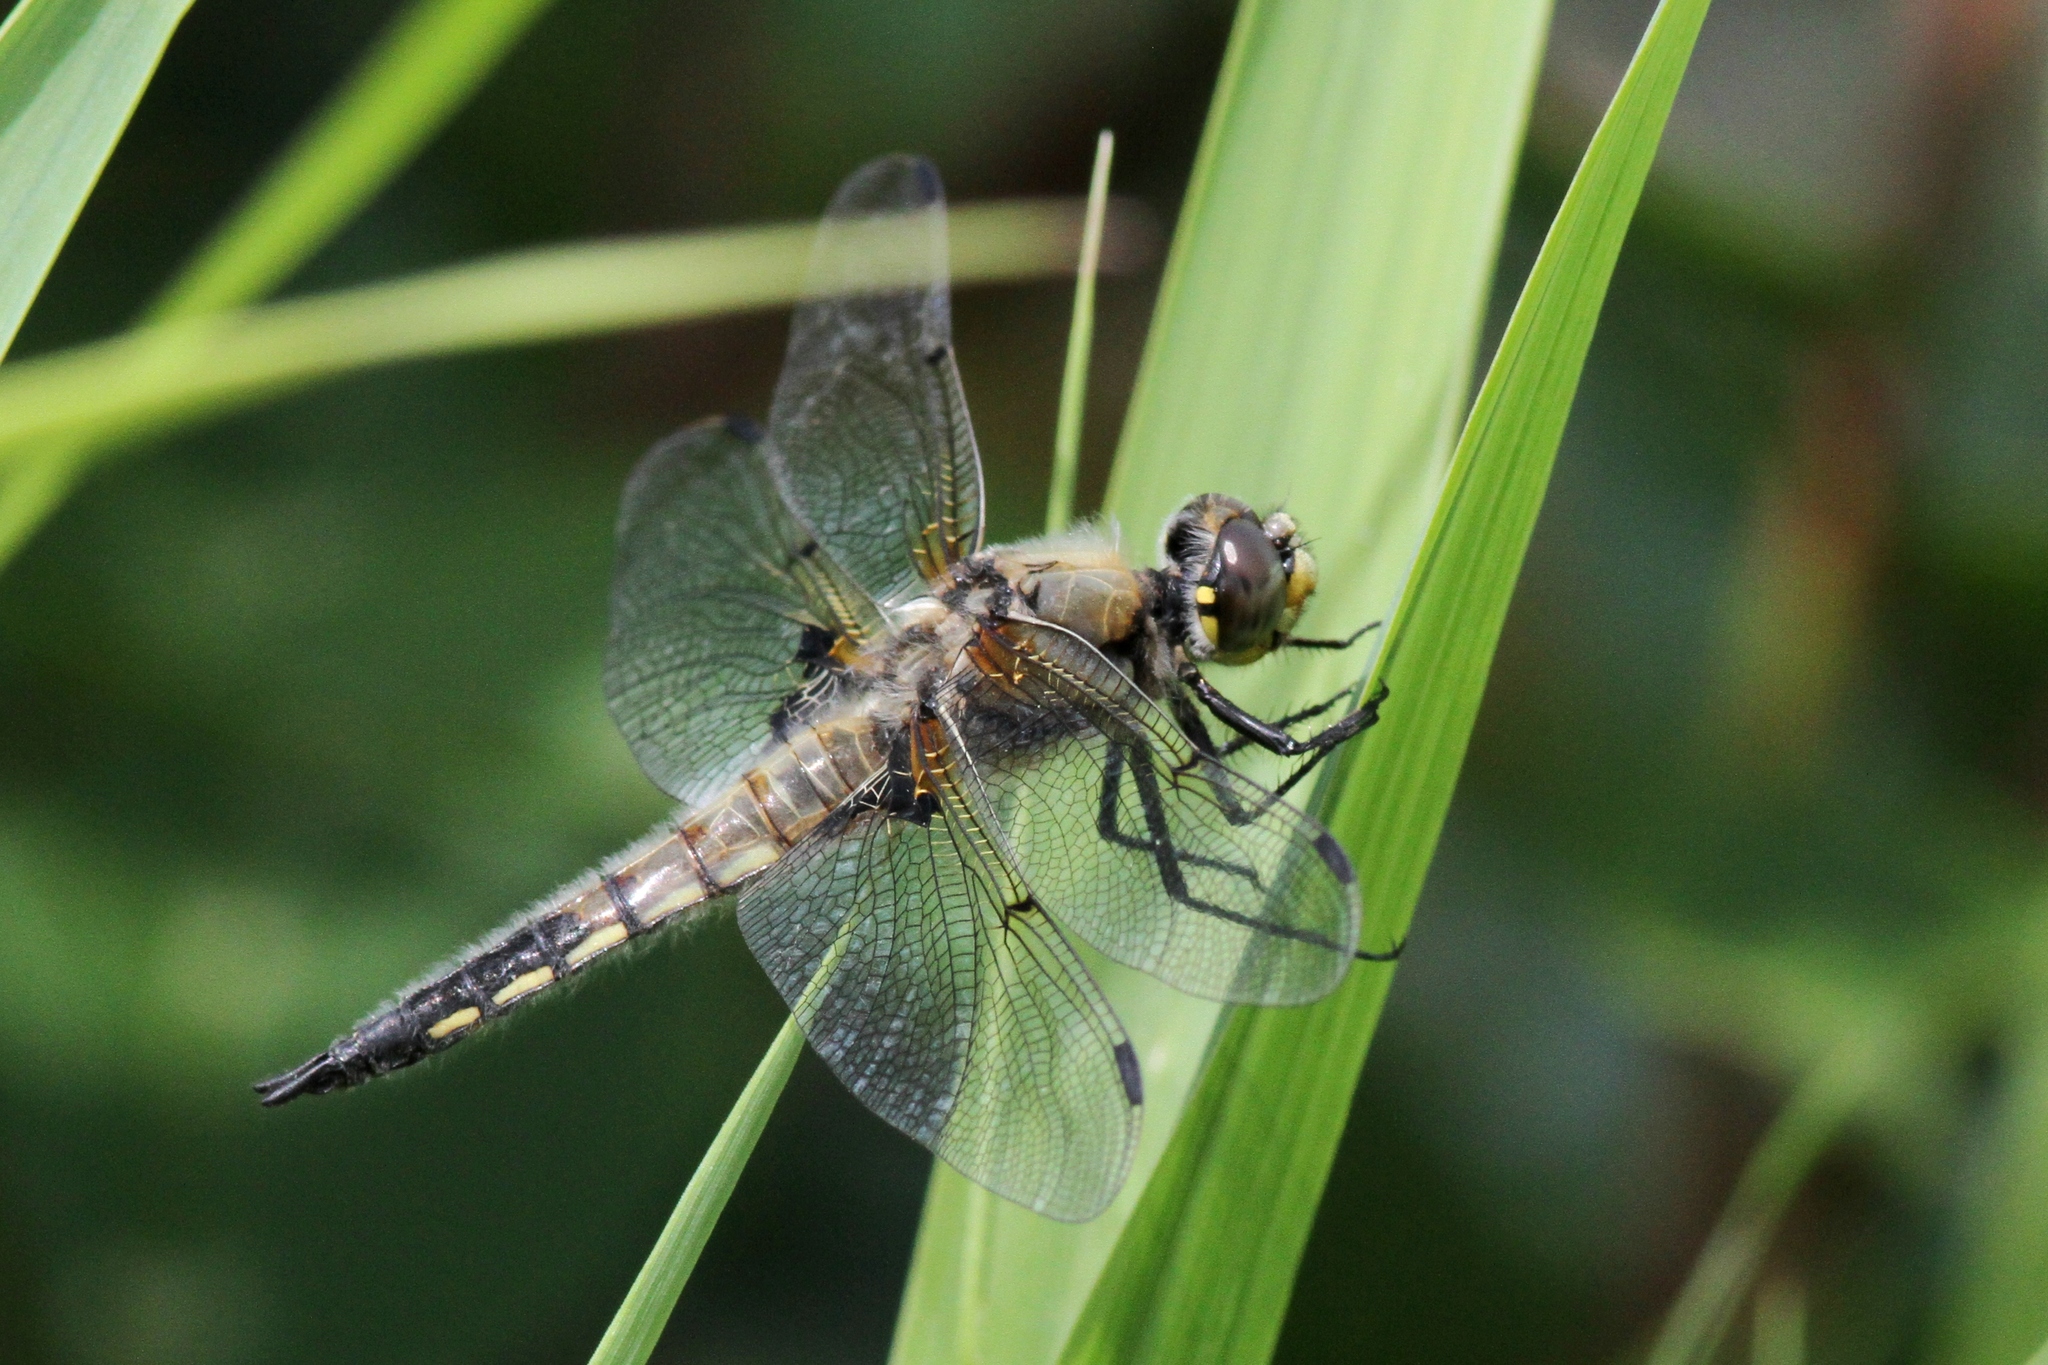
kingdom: Animalia
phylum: Arthropoda
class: Insecta
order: Odonata
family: Libellulidae
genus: Libellula
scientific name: Libellula quadrimaculata
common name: Four-spotted chaser
